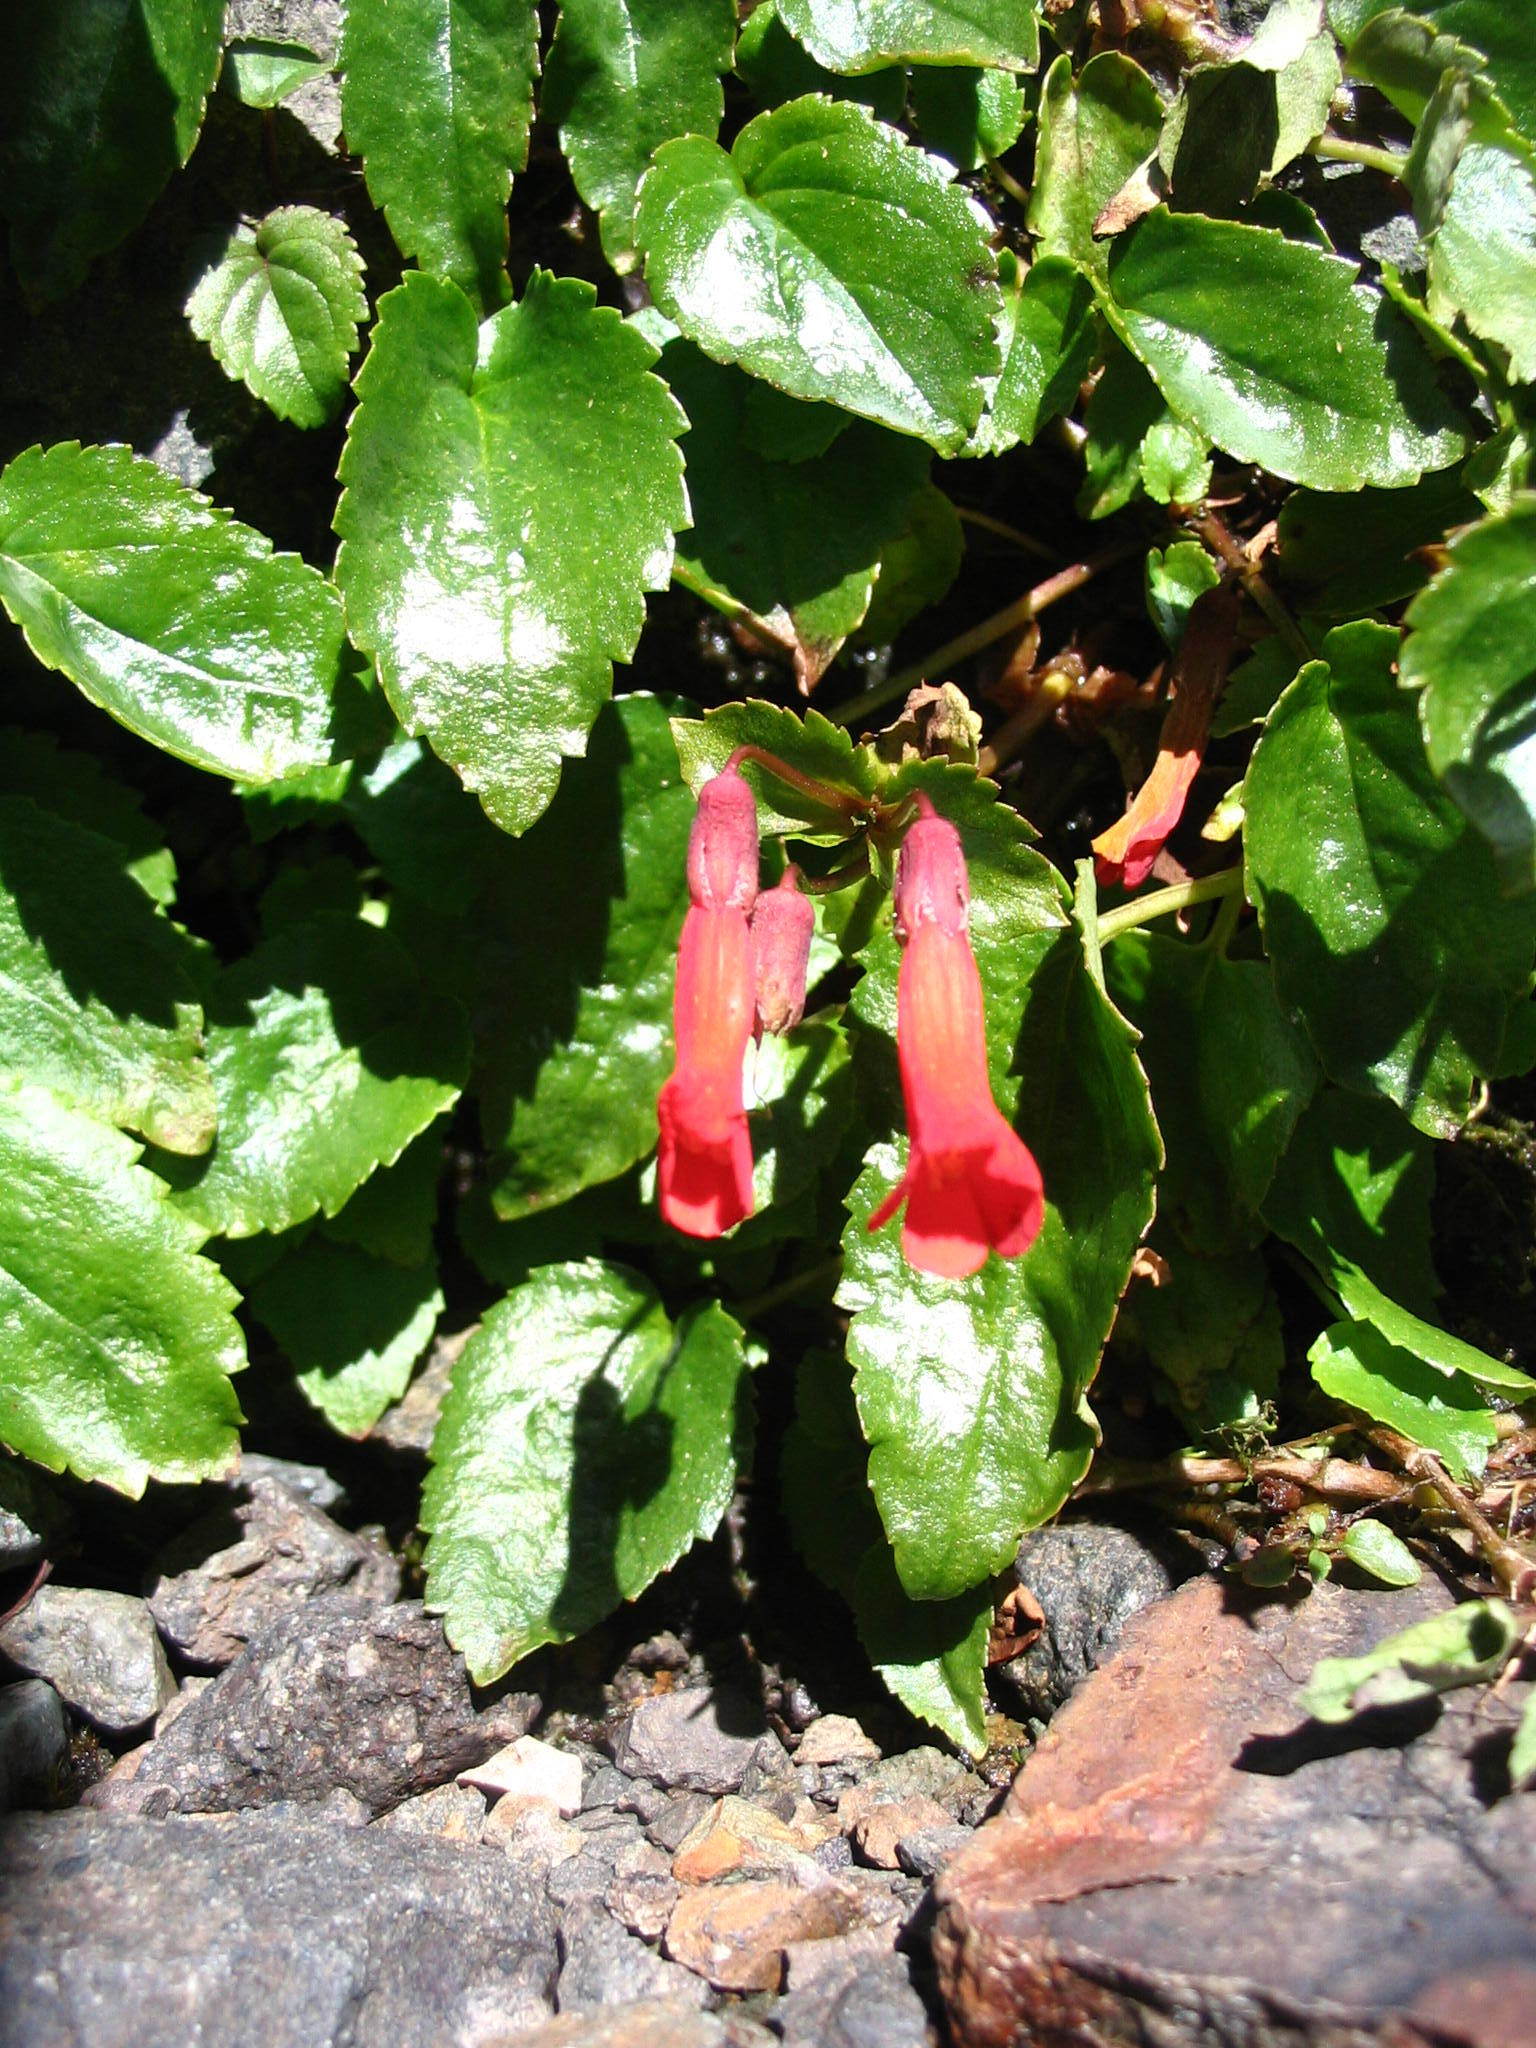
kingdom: Plantae
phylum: Tracheophyta
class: Magnoliopsida
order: Lamiales
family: Plantaginaceae
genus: Ourisia
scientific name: Ourisia ruellioides
